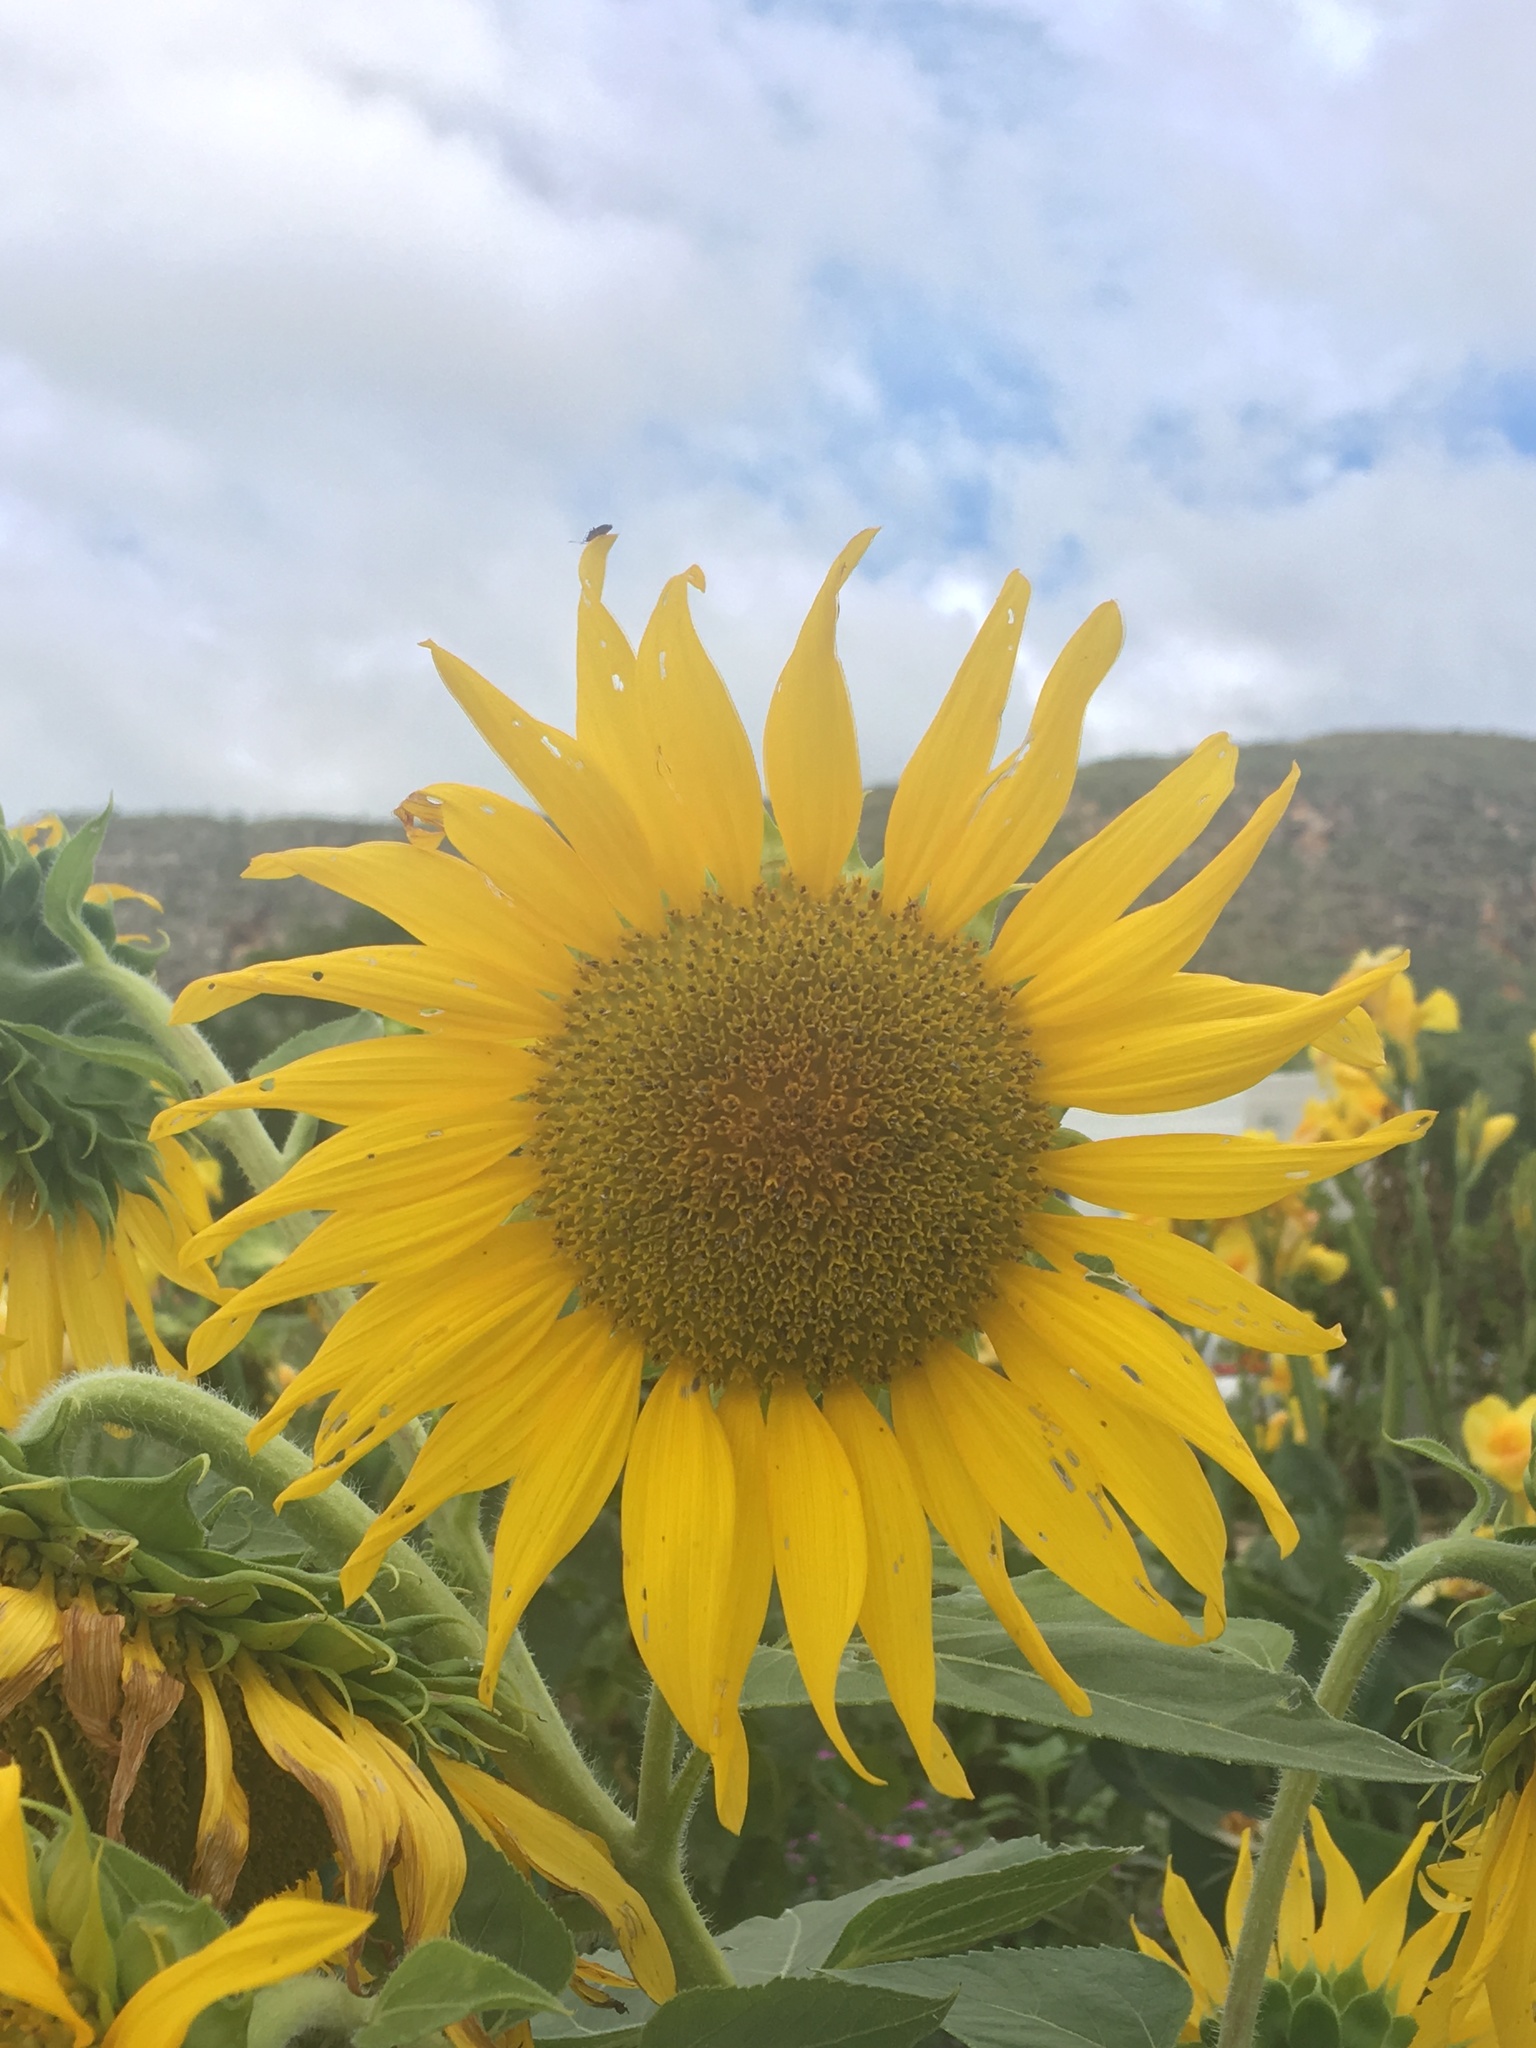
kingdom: Plantae
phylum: Tracheophyta
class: Magnoliopsida
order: Asterales
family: Asteraceae
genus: Helianthus
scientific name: Helianthus annuus
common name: Sunflower
